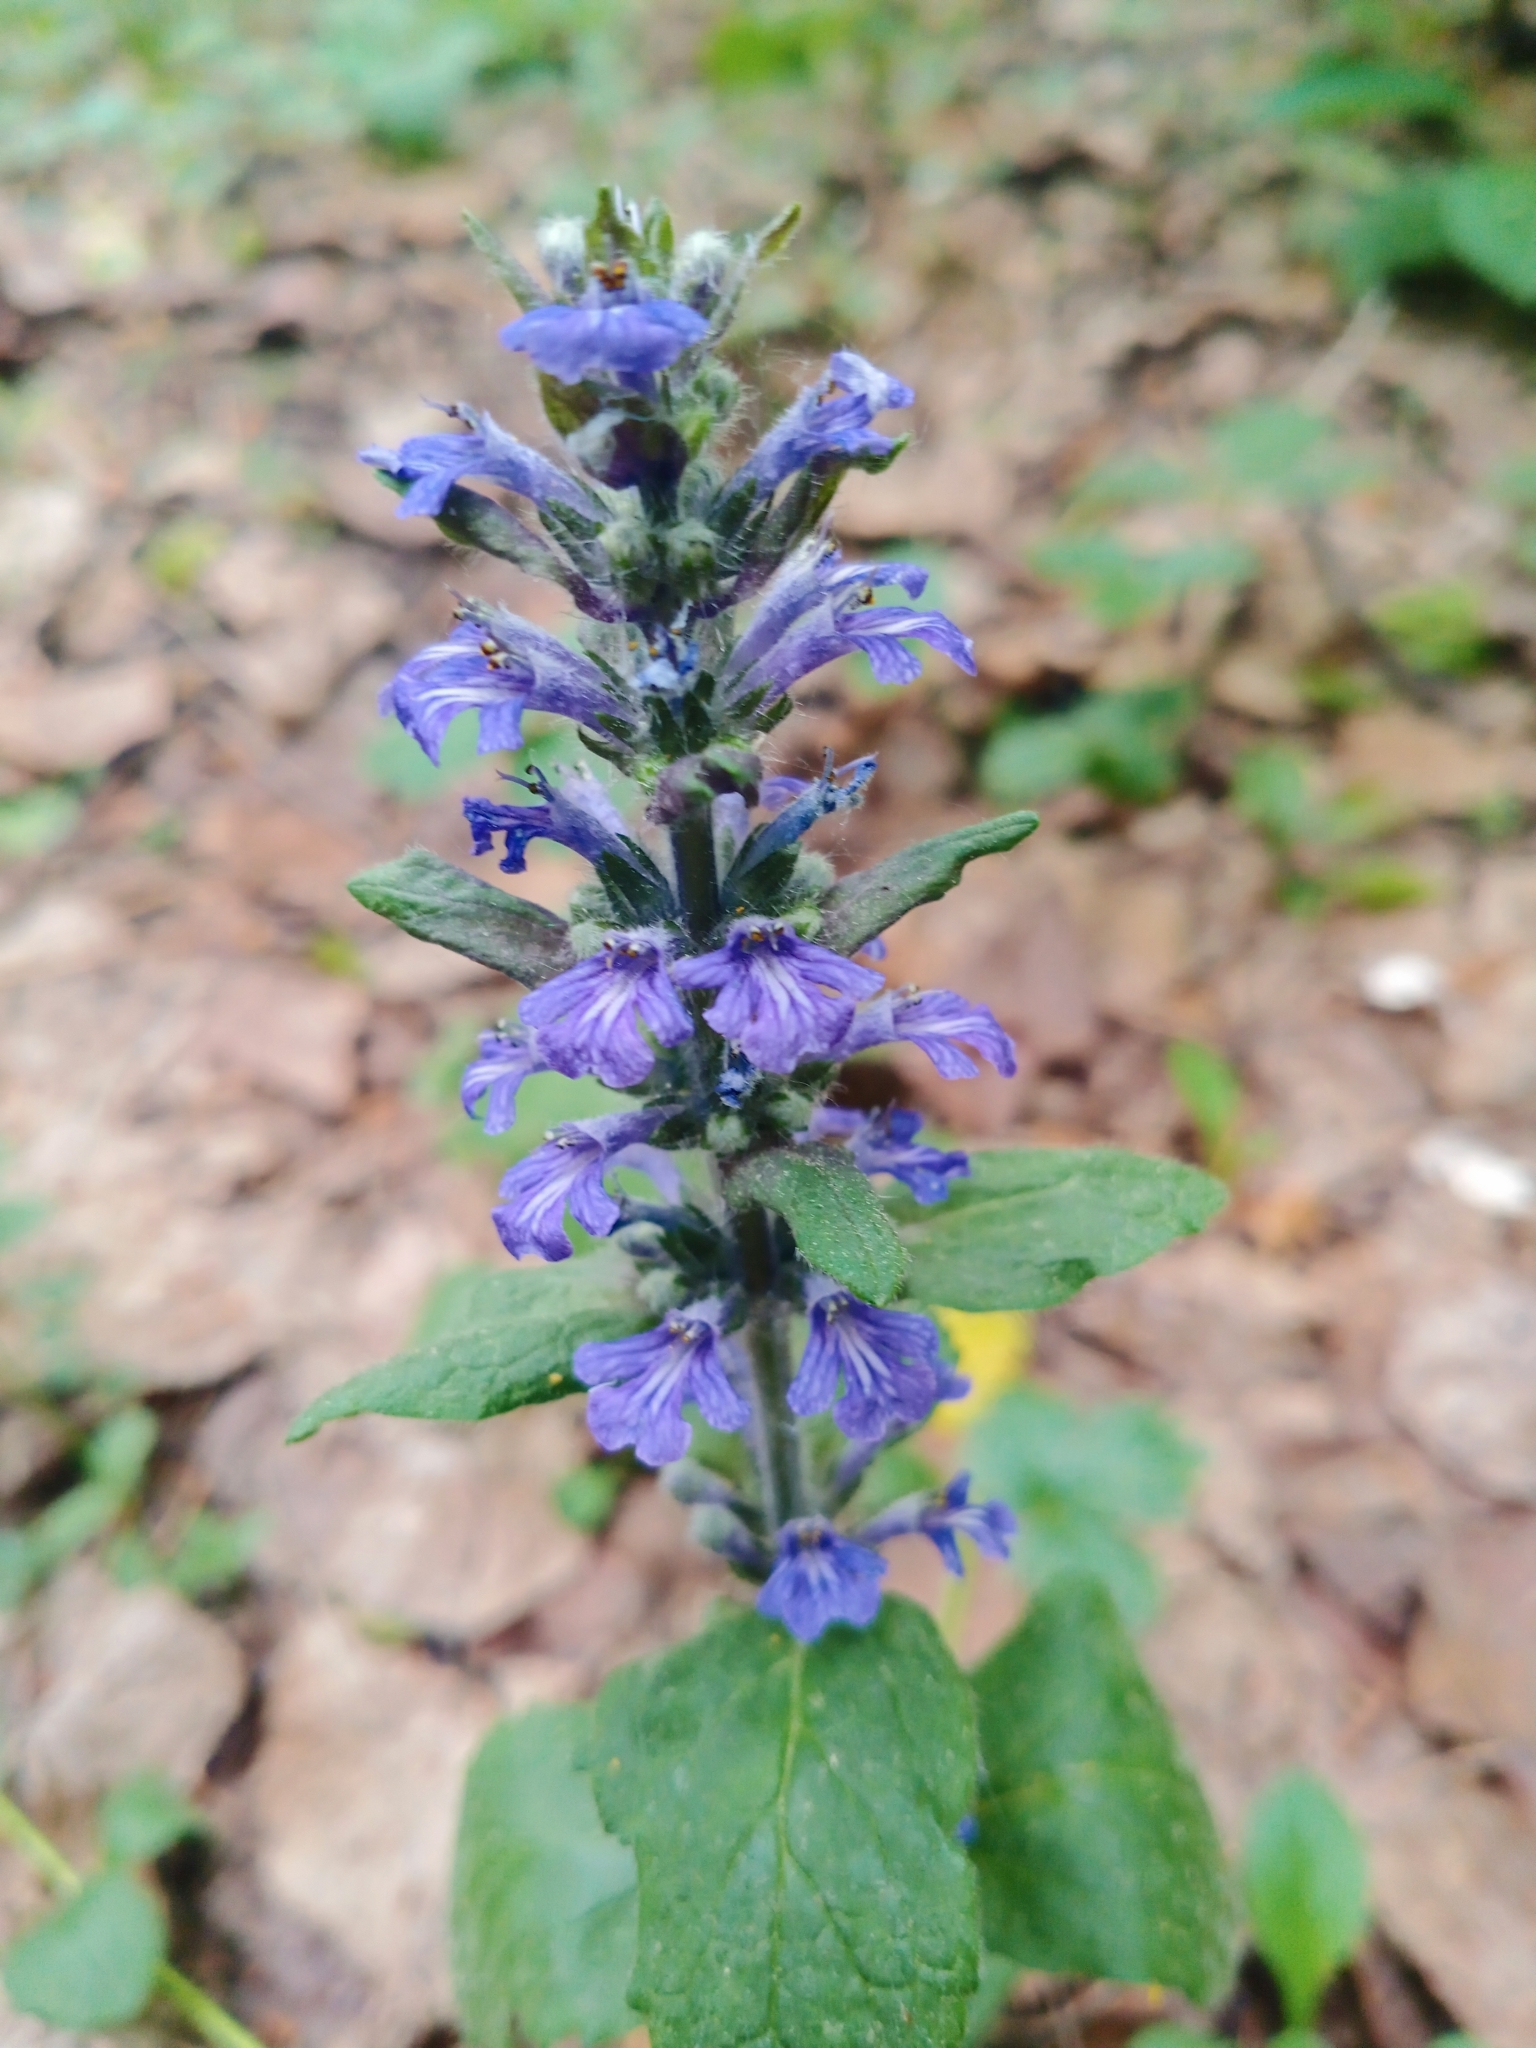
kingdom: Plantae
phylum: Tracheophyta
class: Magnoliopsida
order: Lamiales
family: Lamiaceae
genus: Ajuga
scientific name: Ajuga reptans
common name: Bugle
